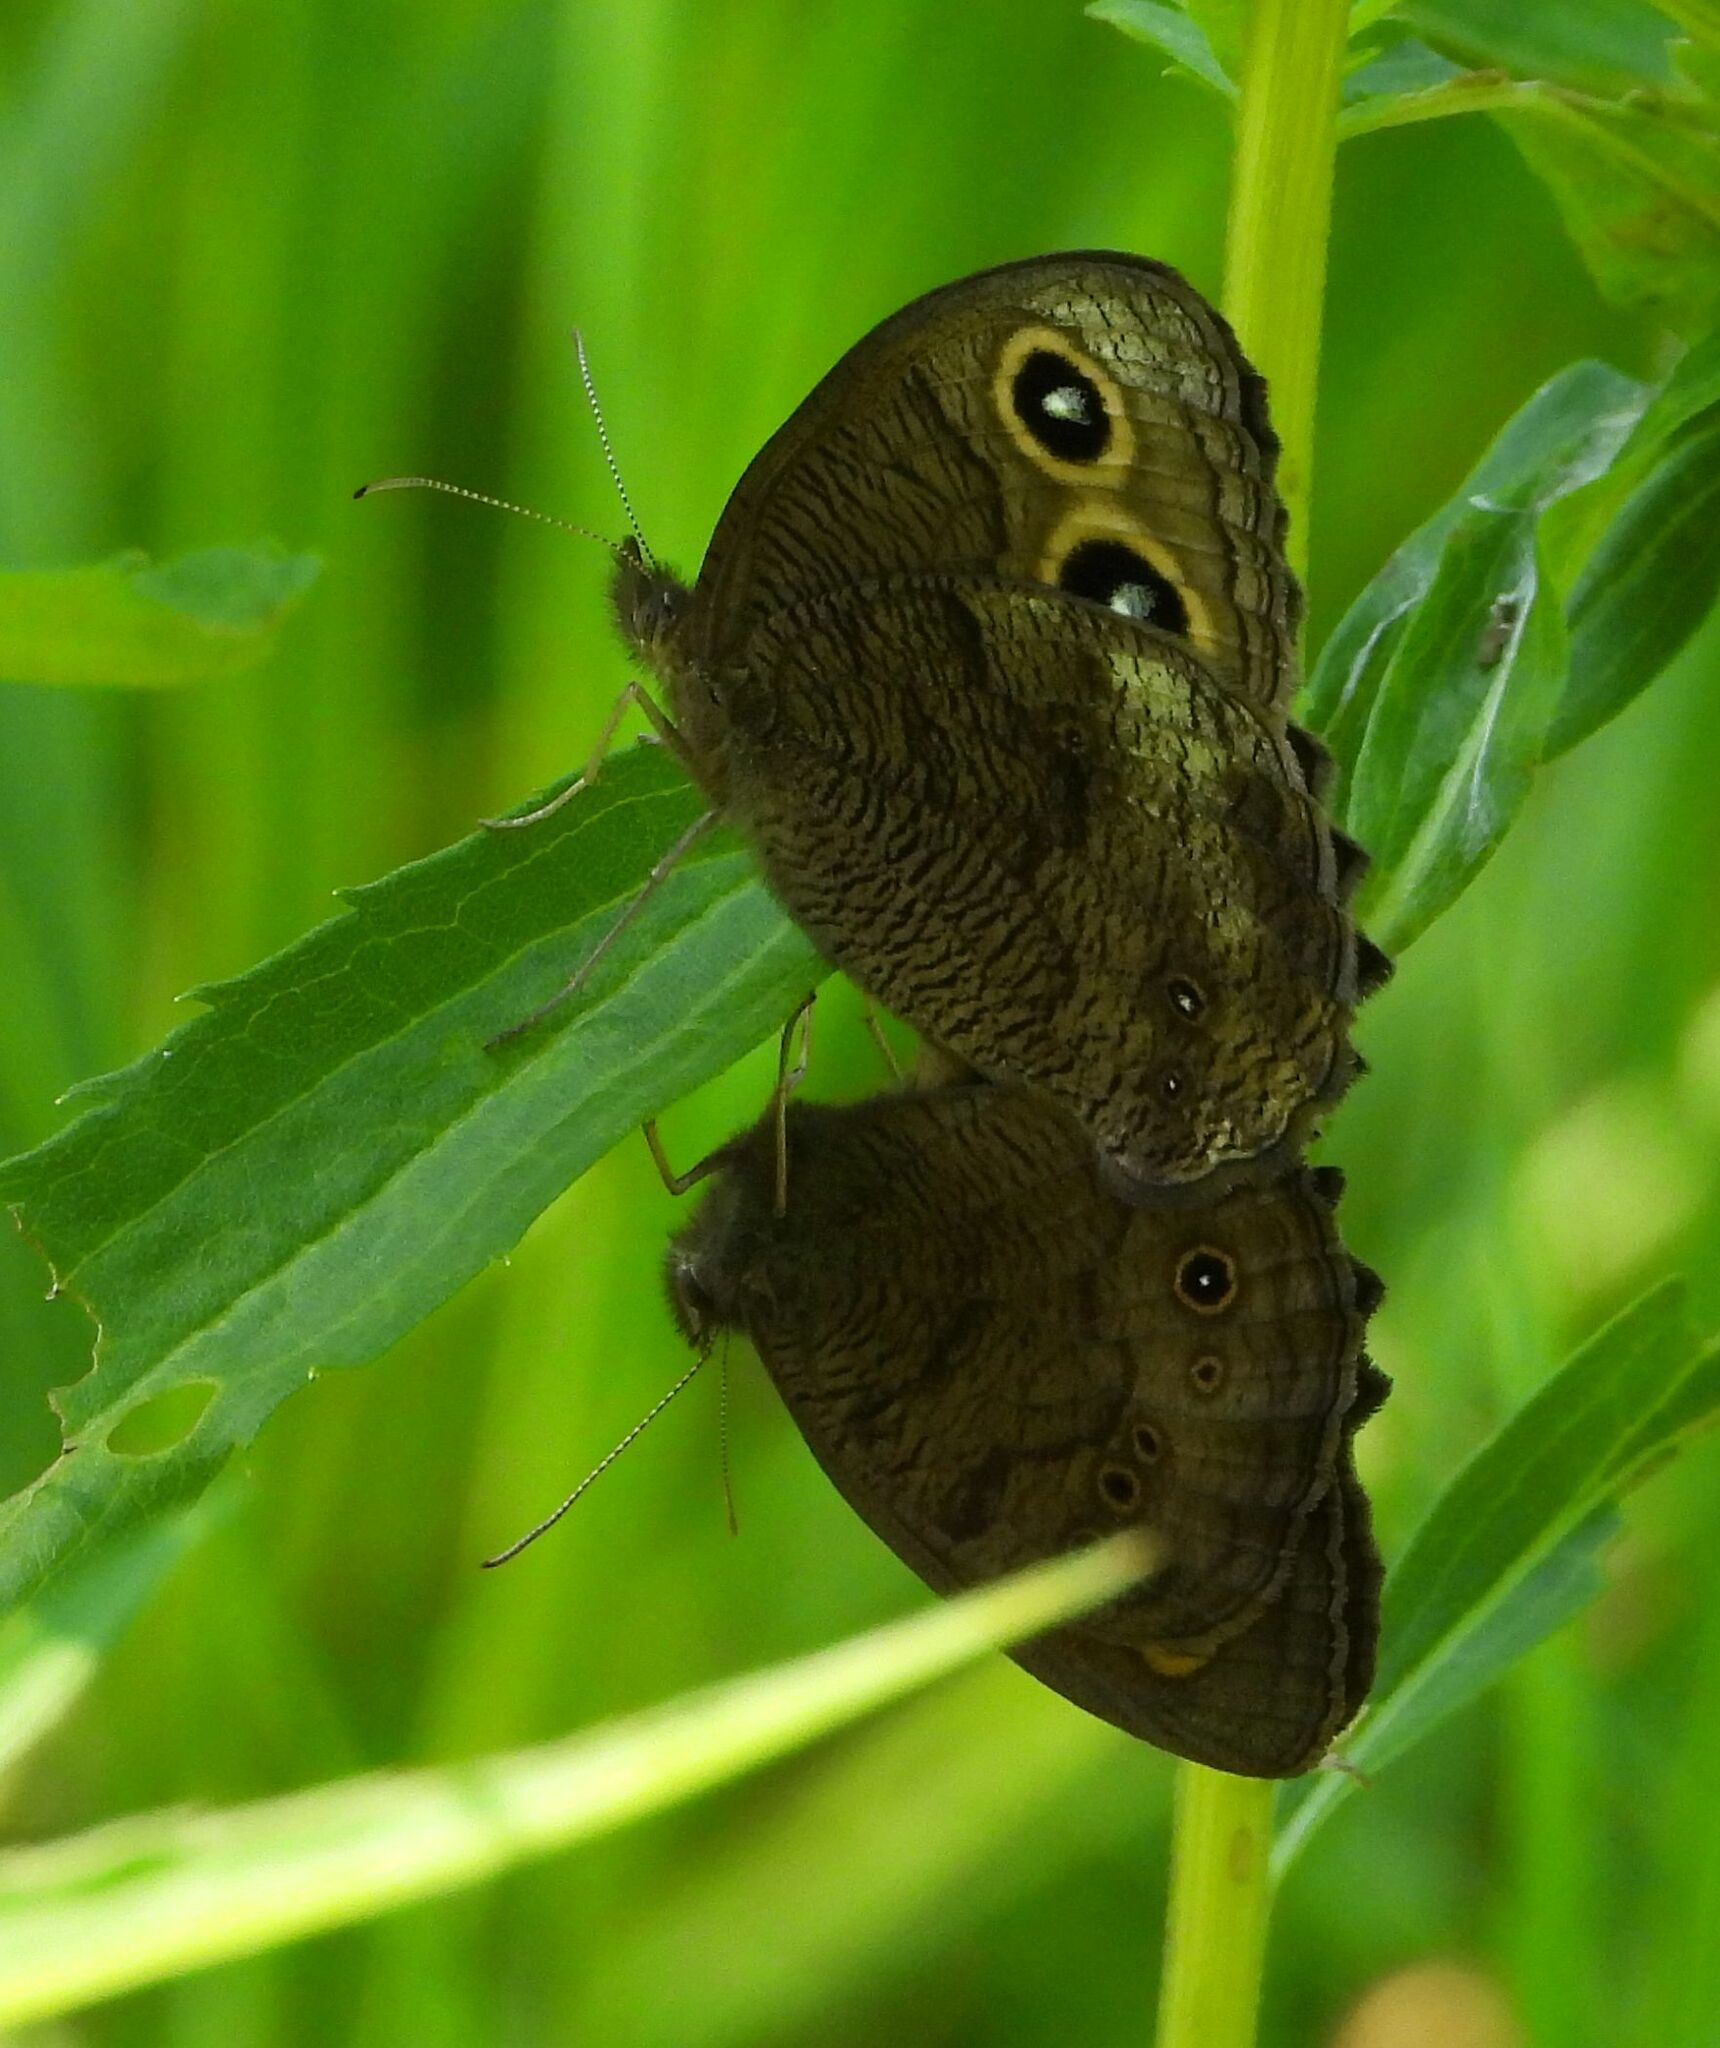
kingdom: Animalia
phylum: Arthropoda
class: Insecta
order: Lepidoptera
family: Nymphalidae
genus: Cercyonis
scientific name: Cercyonis pegala
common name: Common wood-nymph
